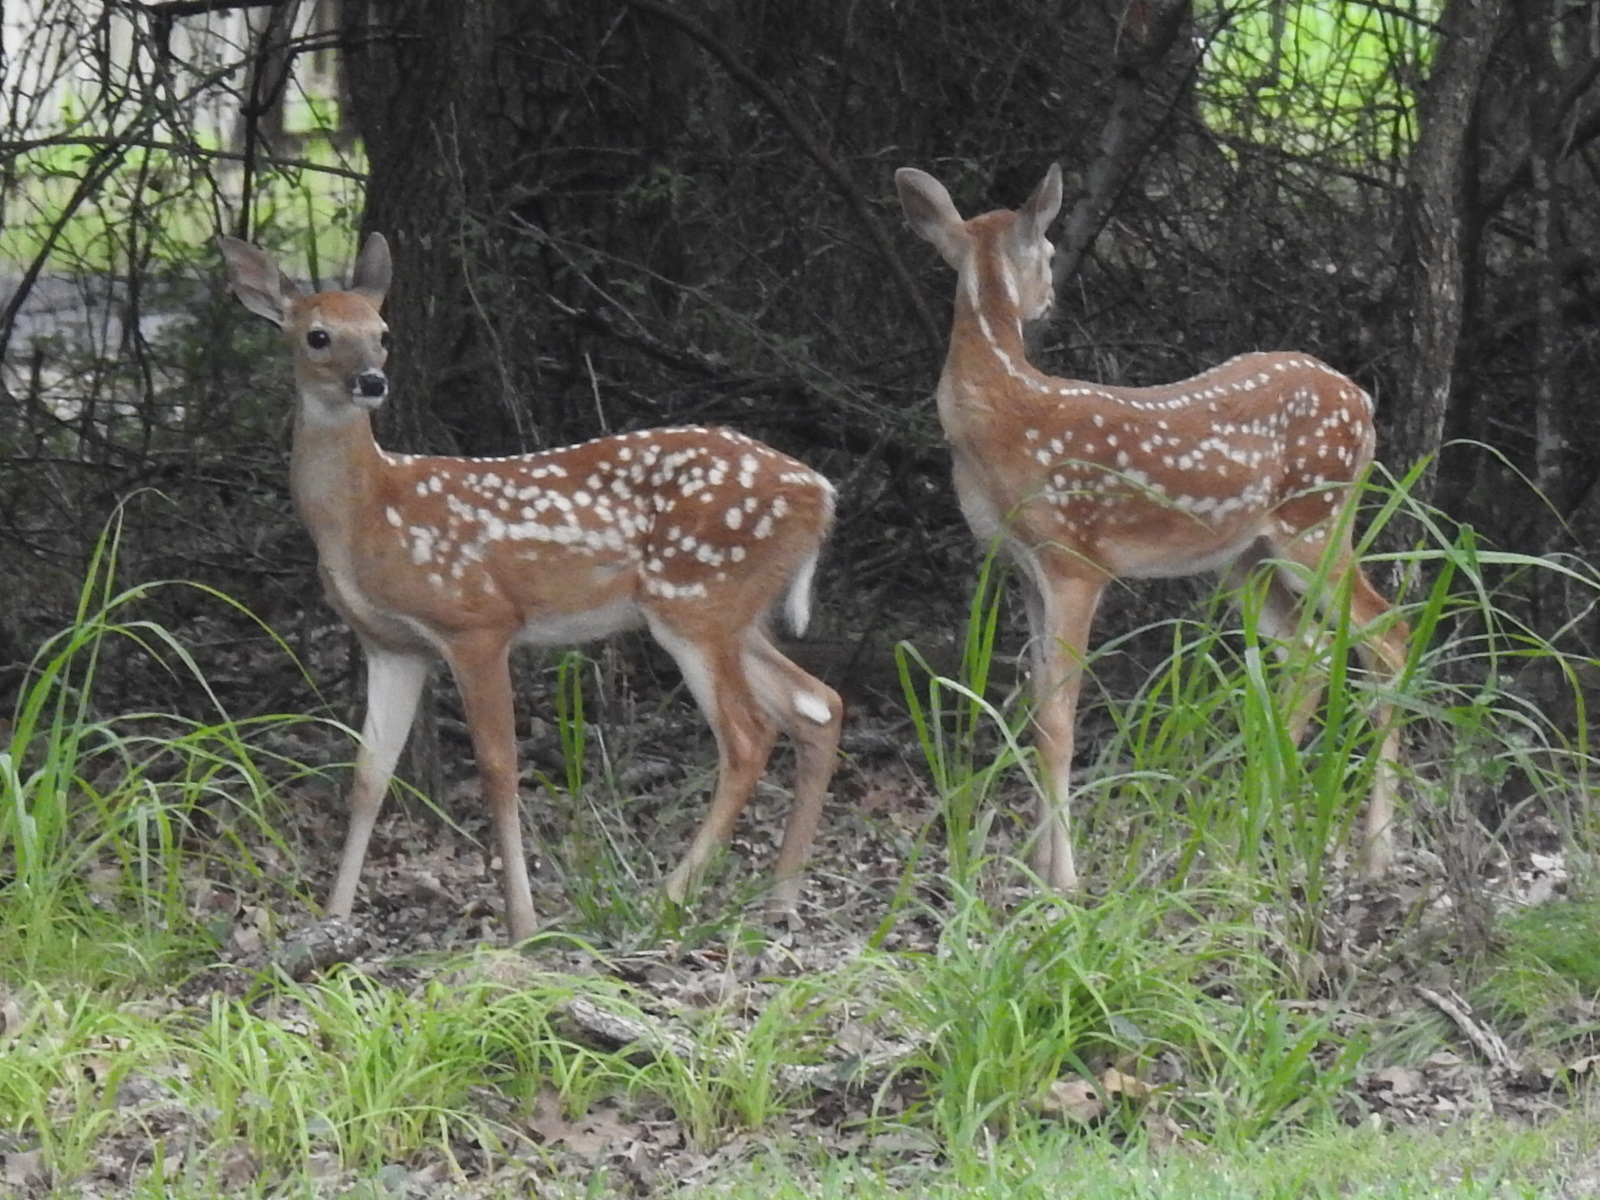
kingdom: Animalia
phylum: Chordata
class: Mammalia
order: Artiodactyla
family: Cervidae
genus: Odocoileus
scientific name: Odocoileus virginianus
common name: White-tailed deer
